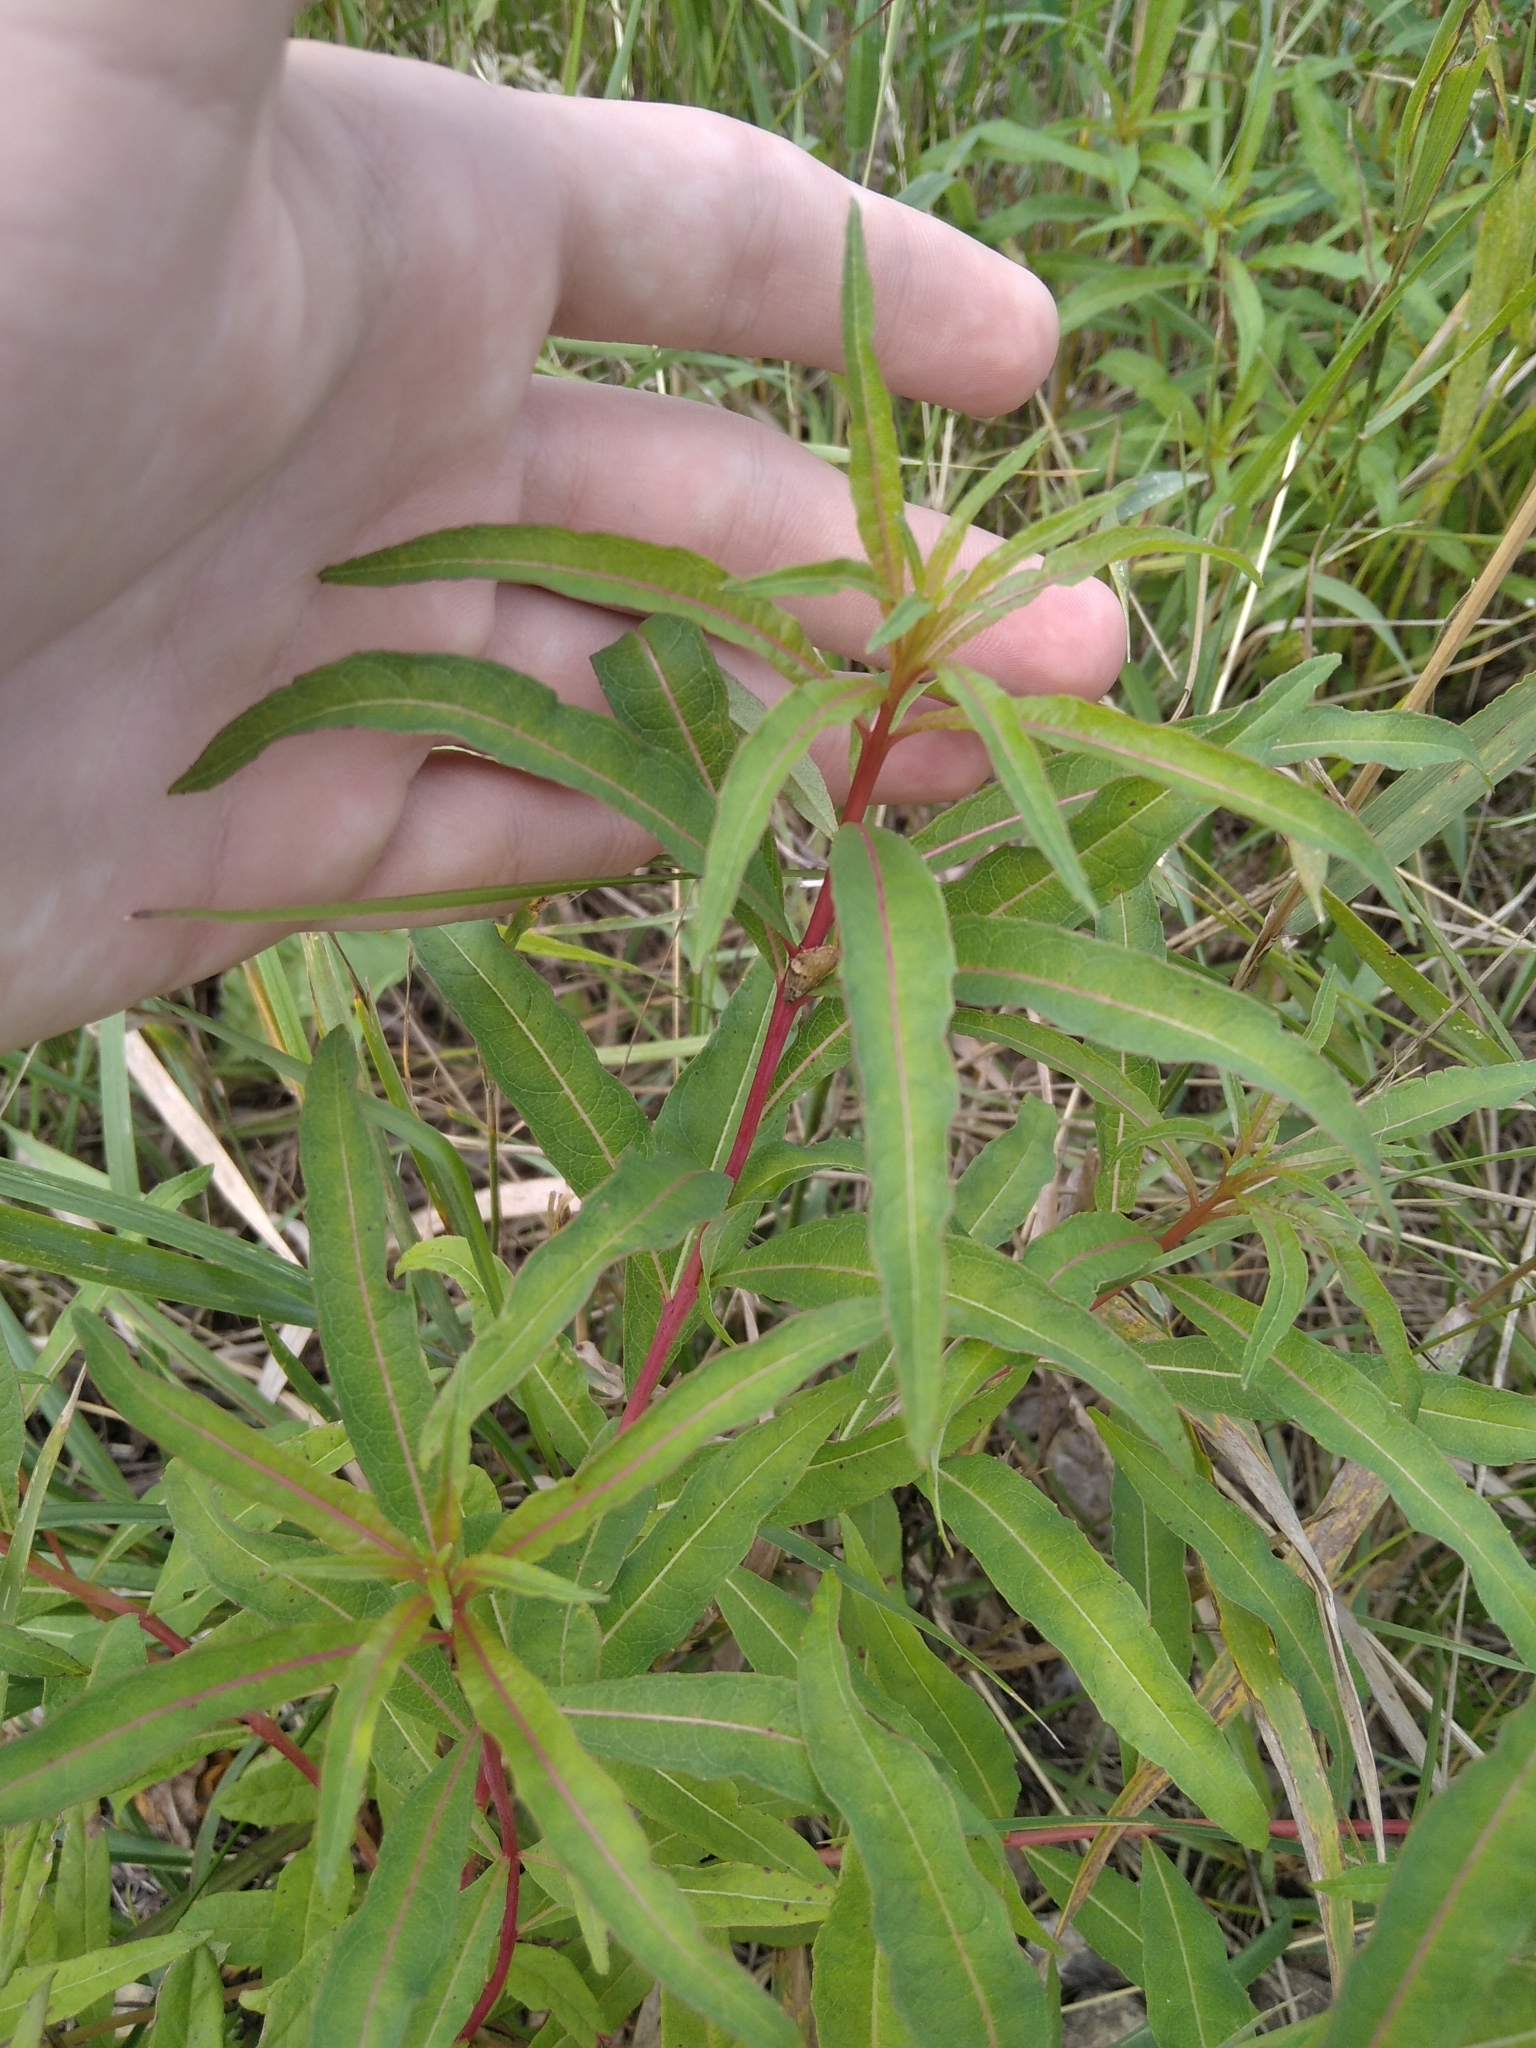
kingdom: Plantae
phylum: Tracheophyta
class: Magnoliopsida
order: Myrtales
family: Onagraceae
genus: Chamaenerion
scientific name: Chamaenerion angustifolium
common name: Fireweed
